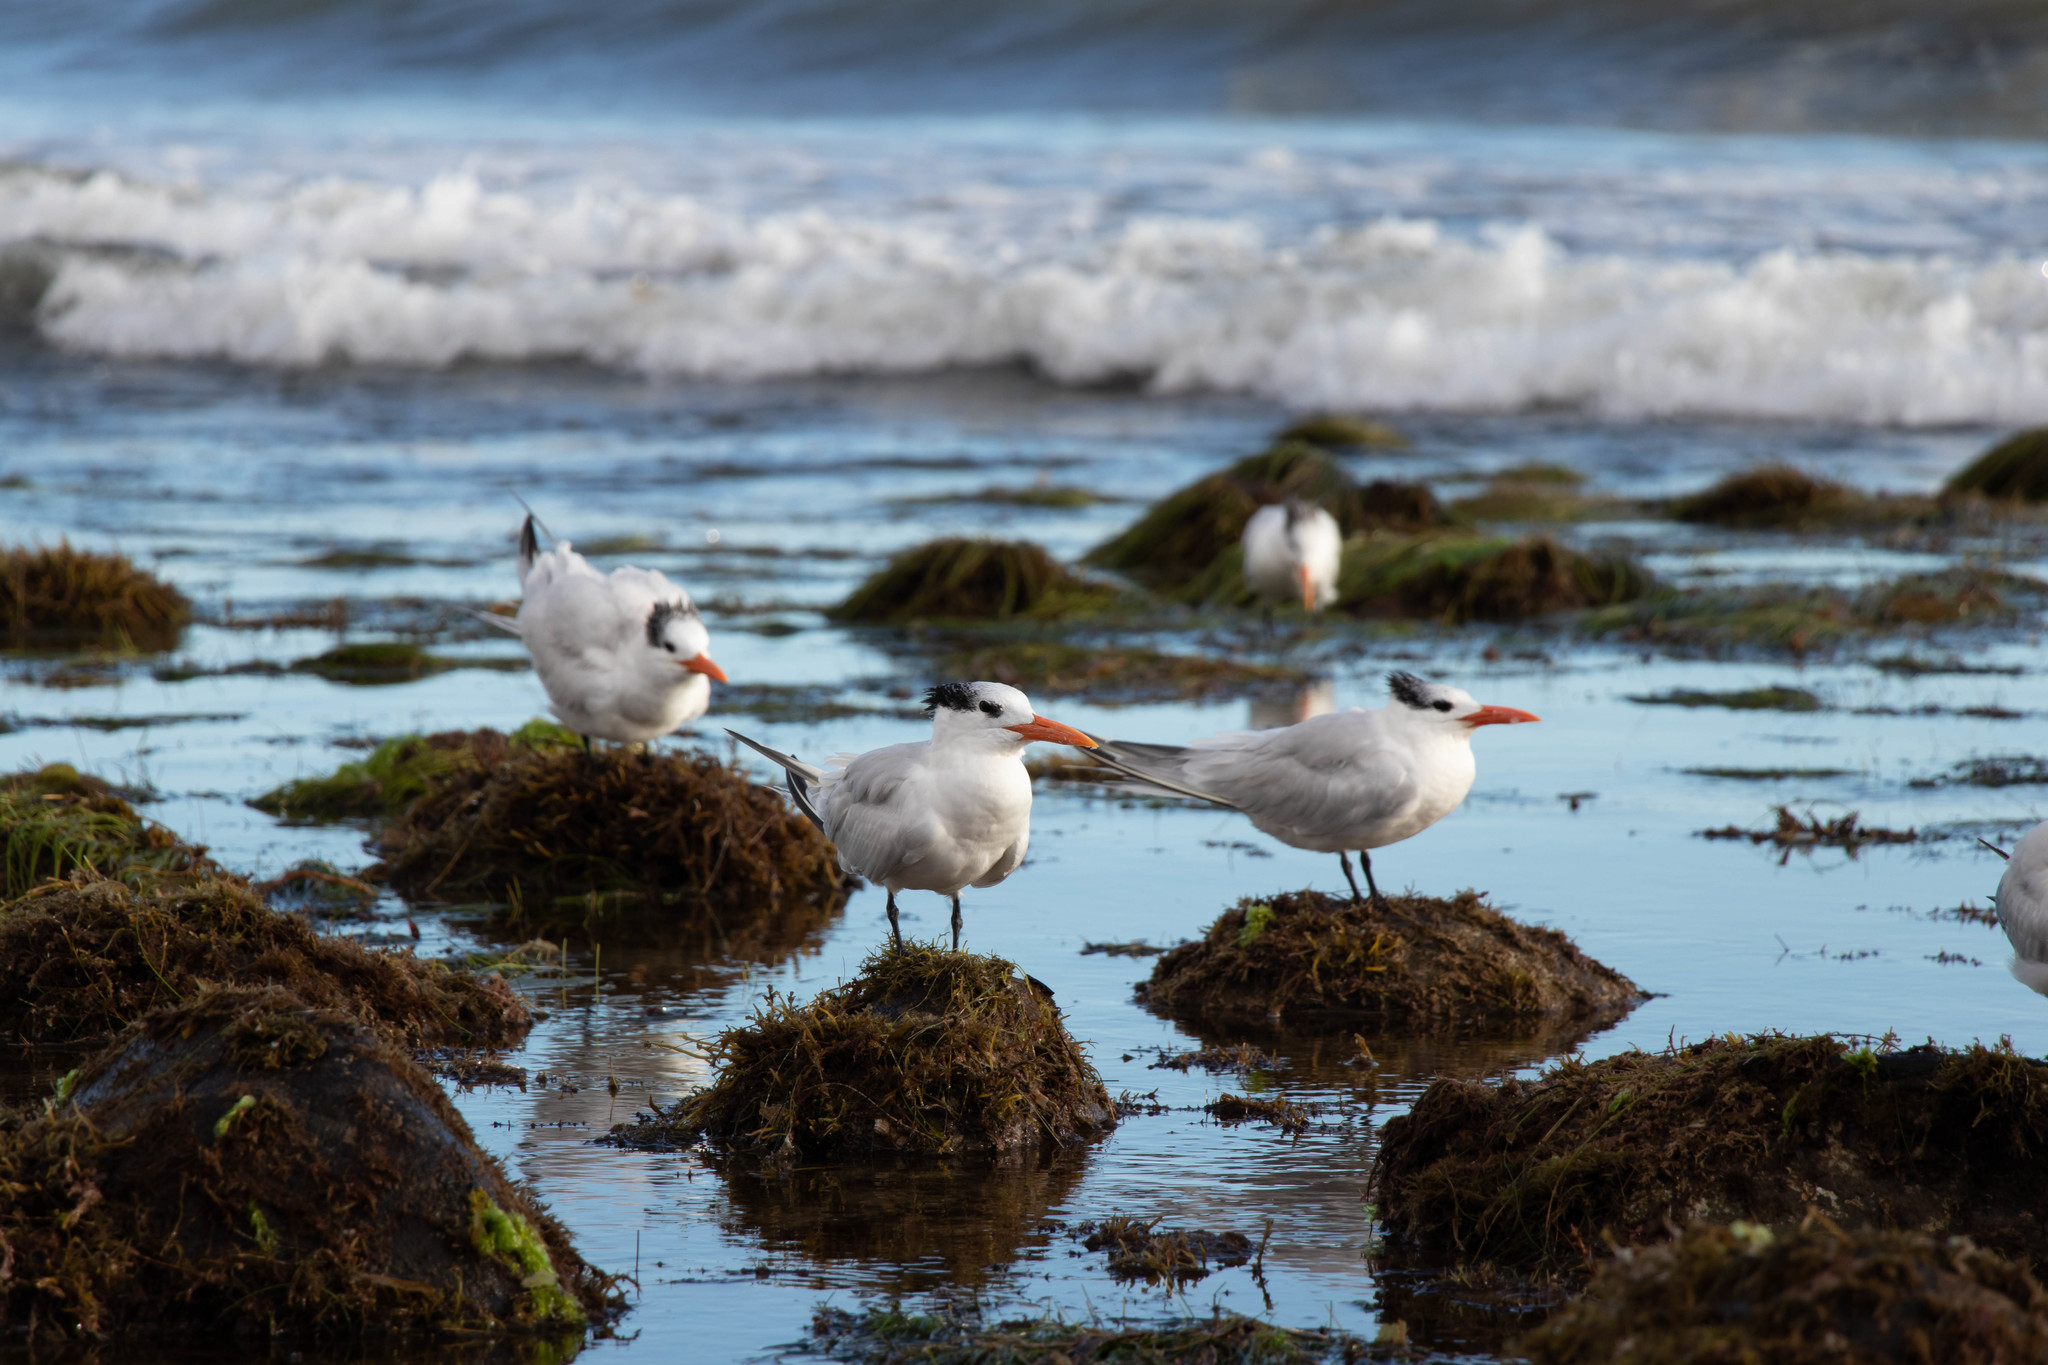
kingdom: Animalia
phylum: Chordata
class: Aves
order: Charadriiformes
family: Laridae
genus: Thalasseus
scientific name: Thalasseus maximus
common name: Royal tern
